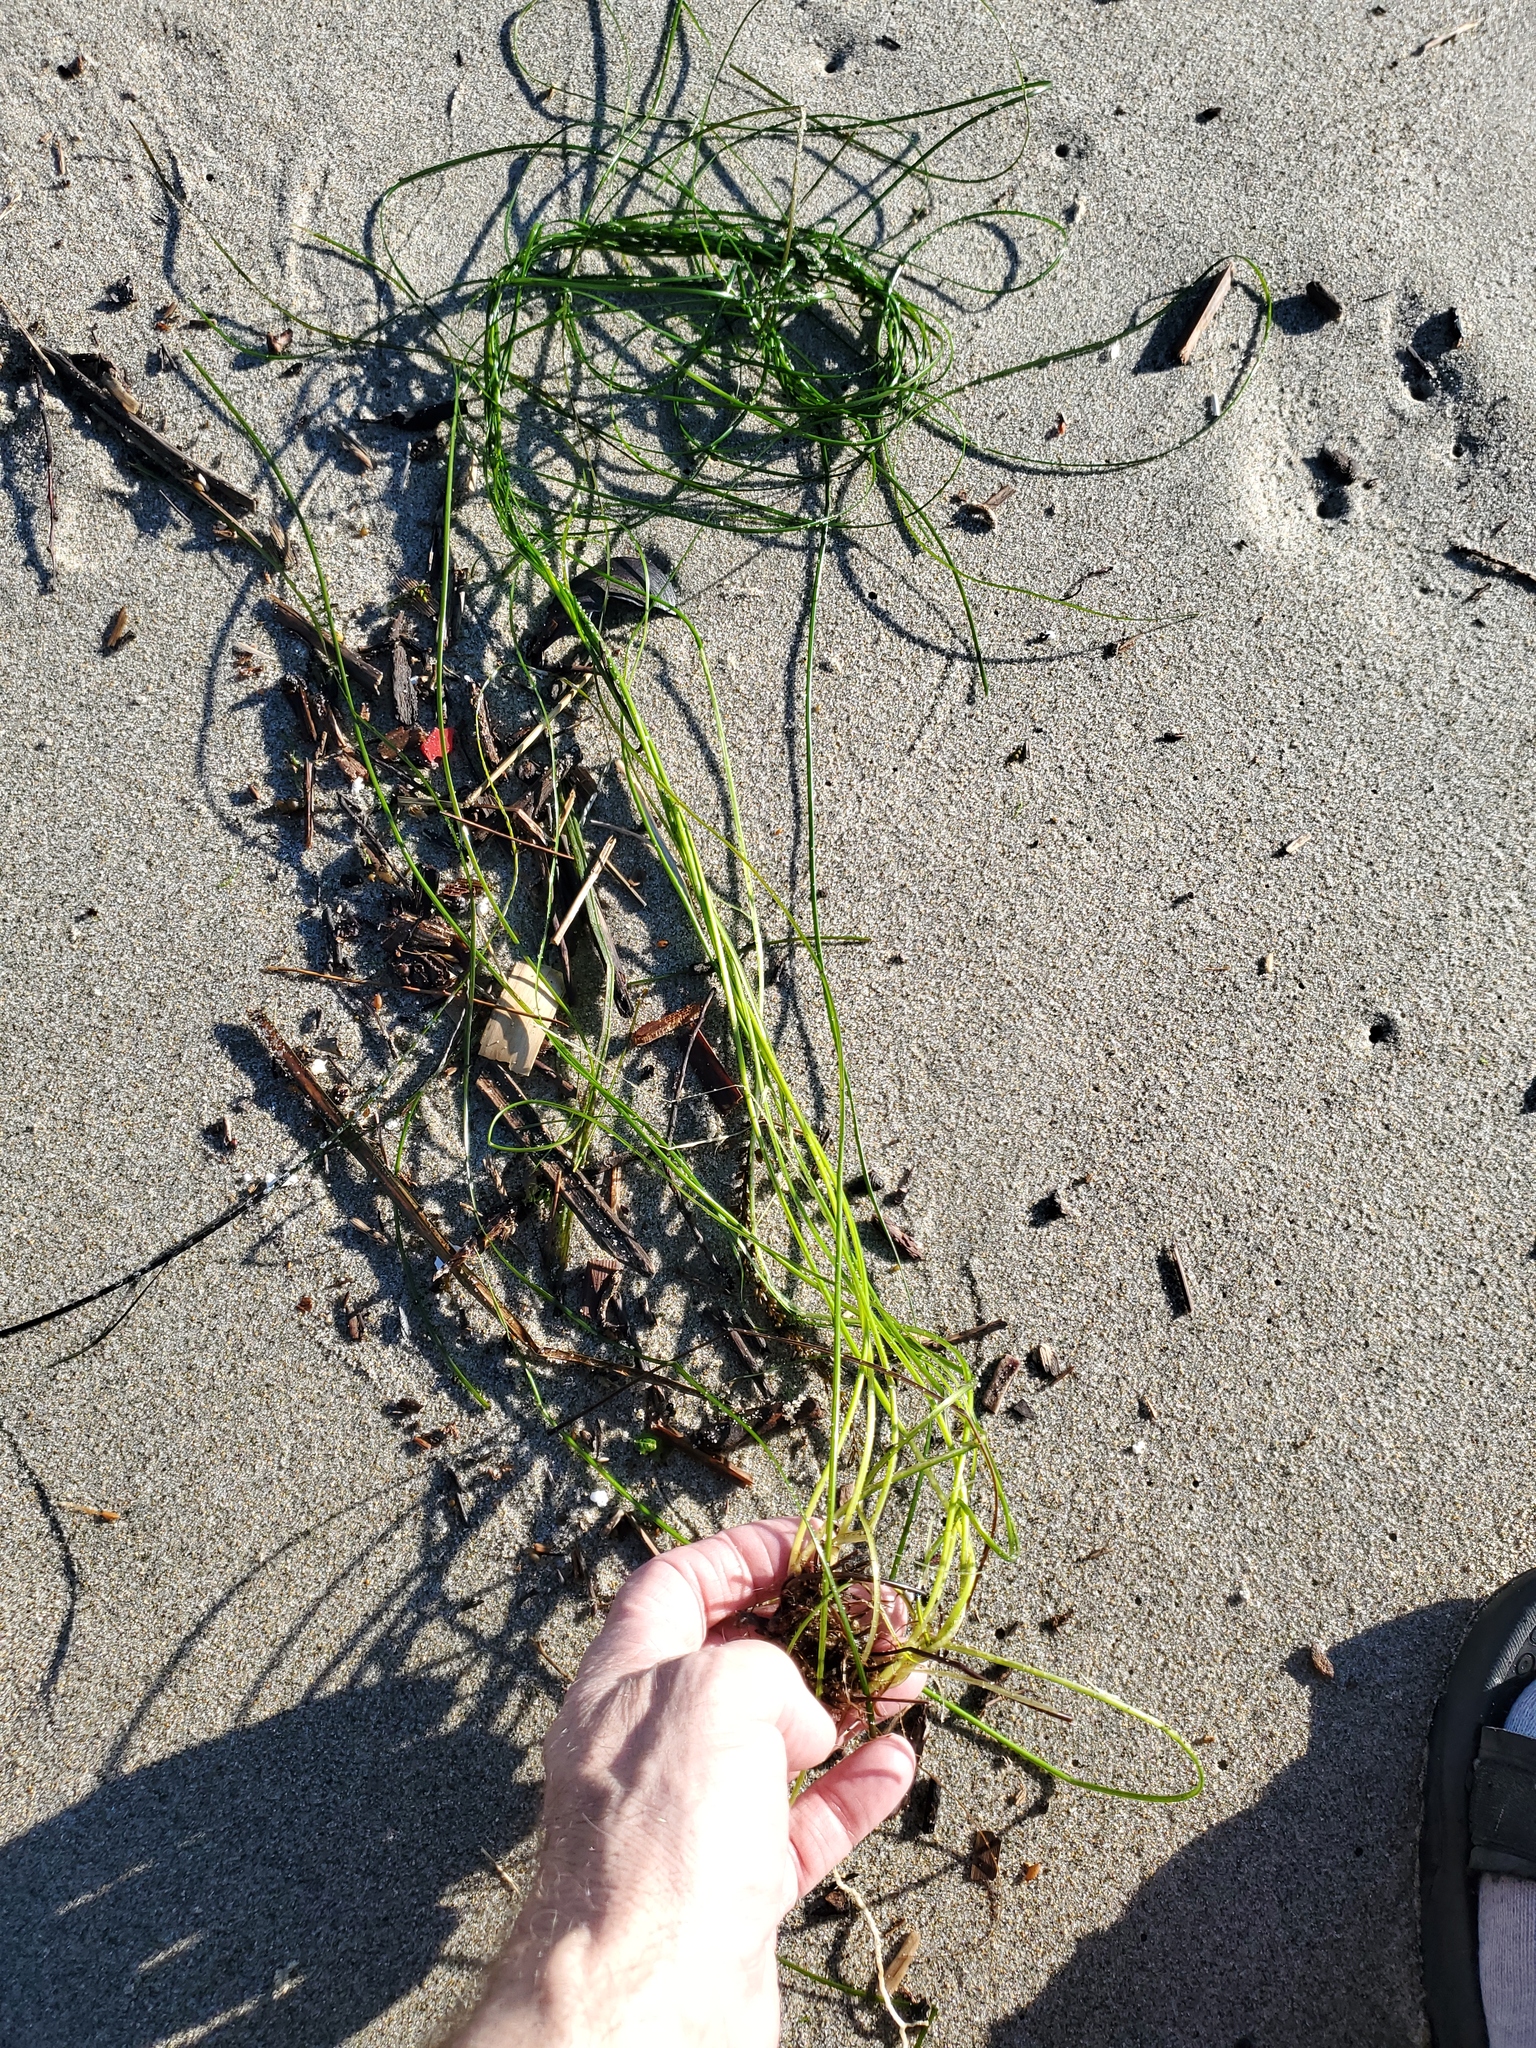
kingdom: Plantae
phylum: Tracheophyta
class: Liliopsida
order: Alismatales
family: Zosteraceae
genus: Phyllospadix
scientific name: Phyllospadix torreyi
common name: Surfgrass
